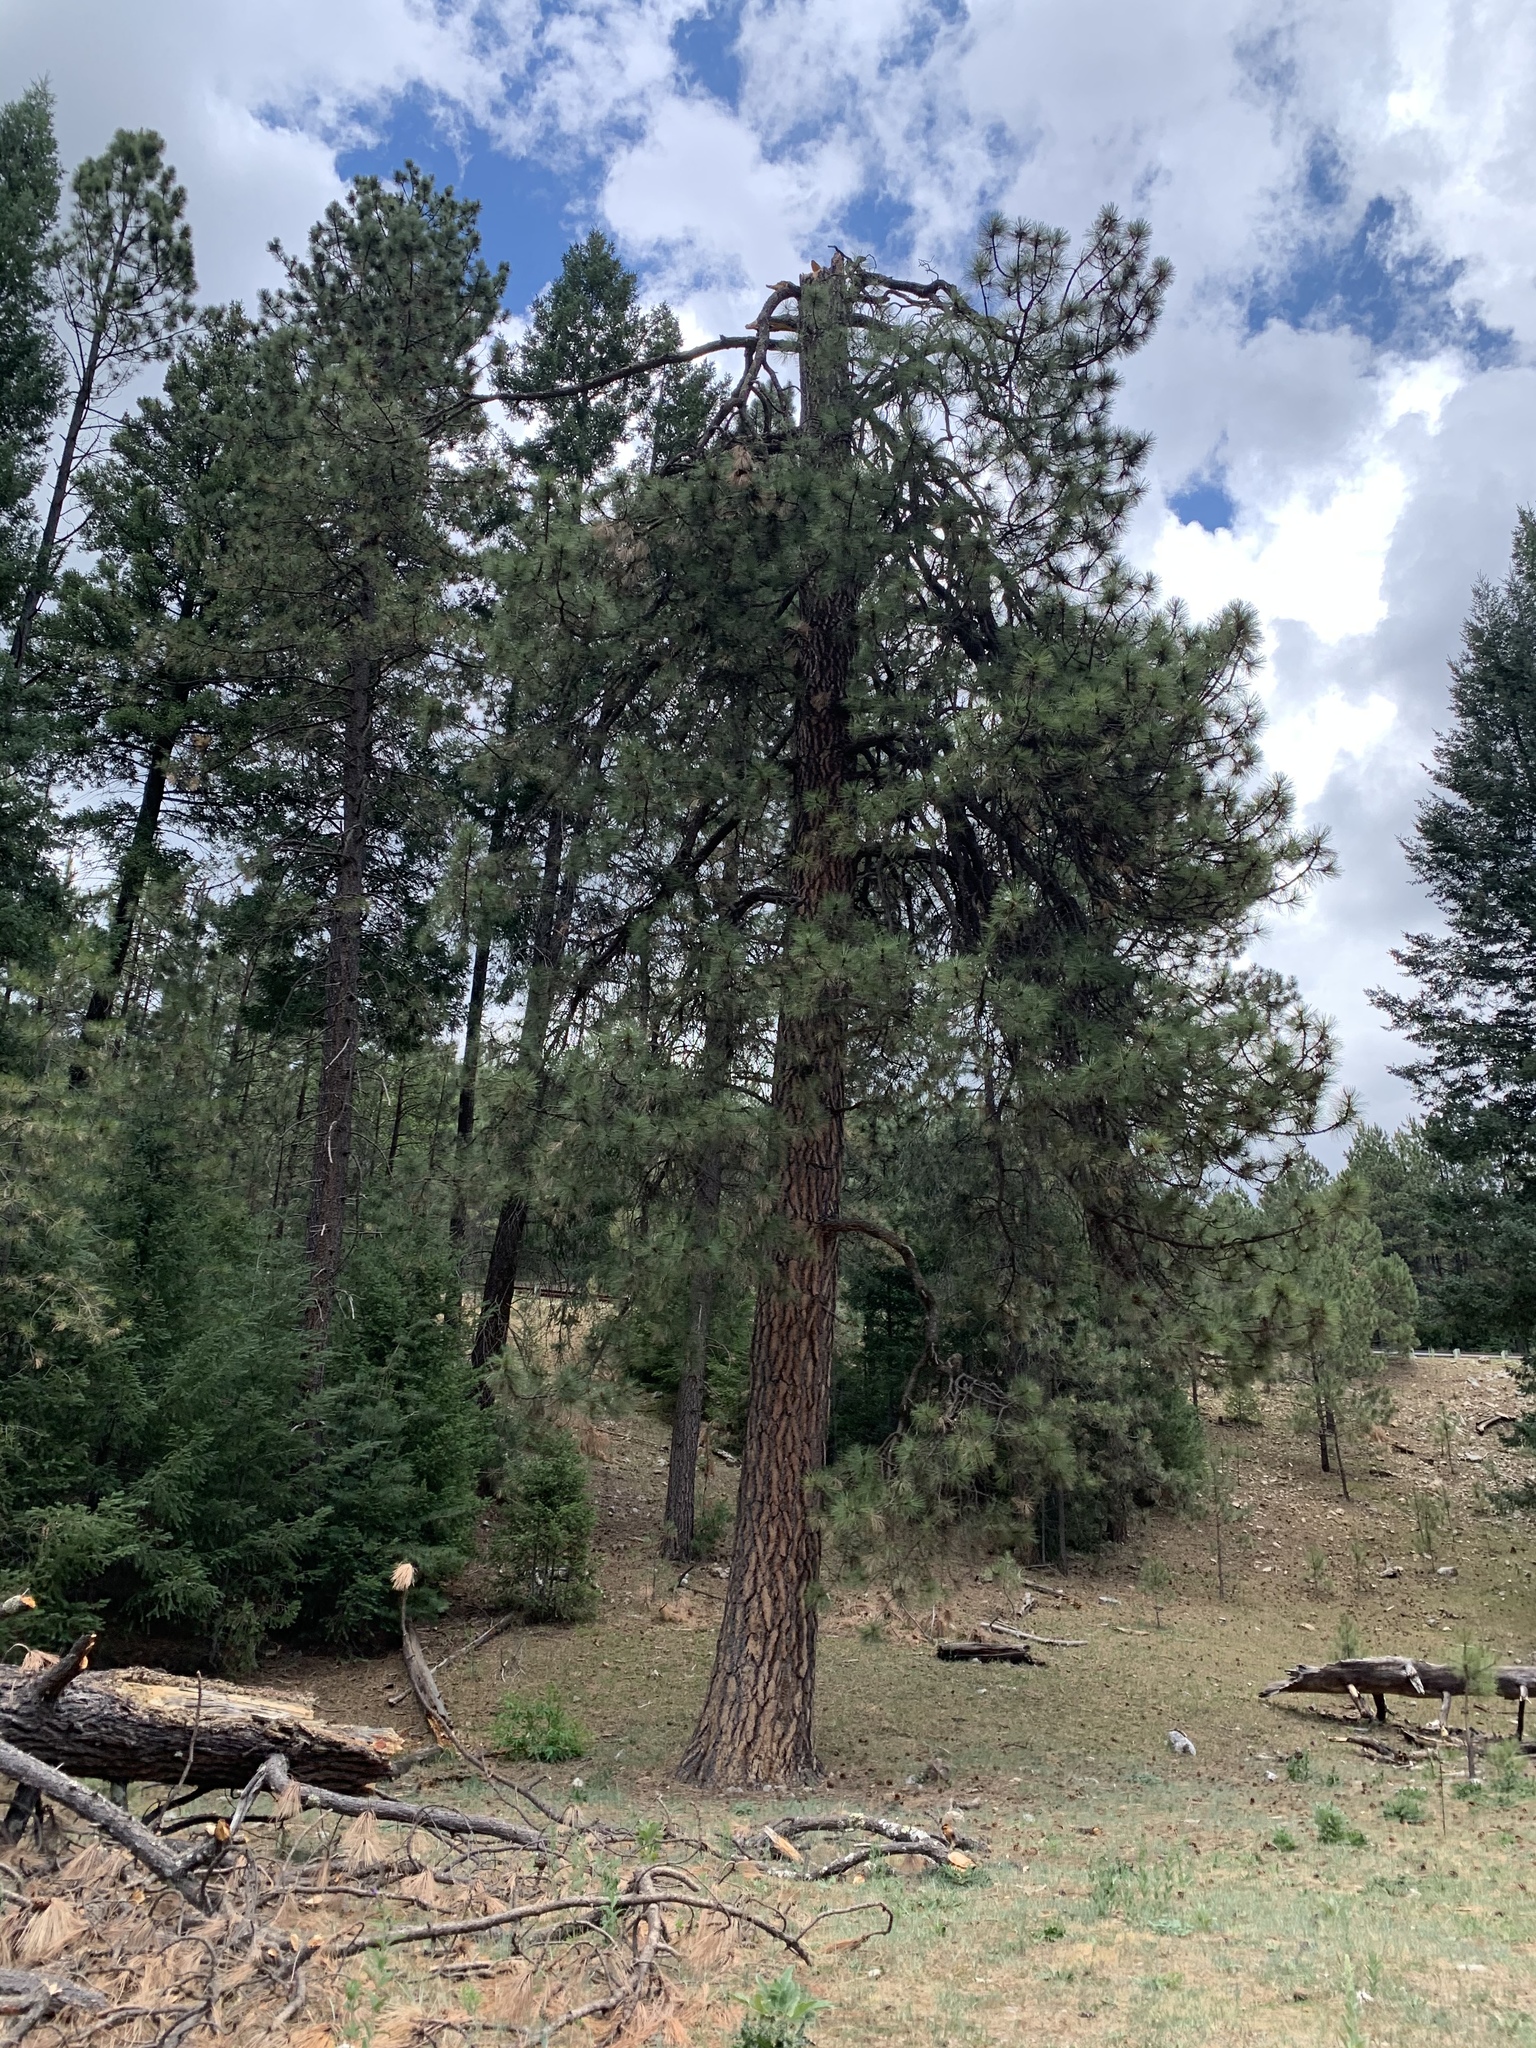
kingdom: Plantae
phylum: Tracheophyta
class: Pinopsida
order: Pinales
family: Pinaceae
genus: Pinus
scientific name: Pinus ponderosa
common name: Western yellow-pine
